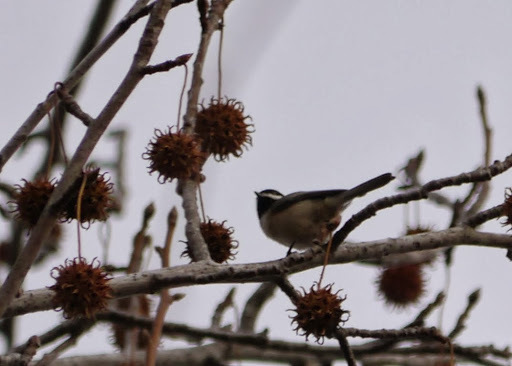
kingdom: Animalia
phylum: Chordata
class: Aves
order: Passeriformes
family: Paridae
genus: Poecile
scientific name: Poecile carolinensis
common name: Carolina chickadee
